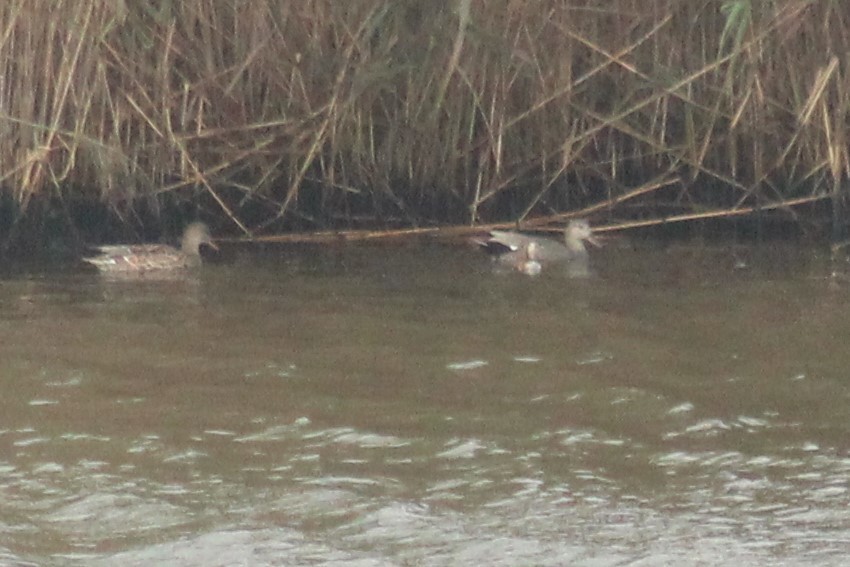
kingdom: Animalia
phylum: Chordata
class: Aves
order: Anseriformes
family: Anatidae
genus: Mareca
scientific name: Mareca strepera
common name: Gadwall
